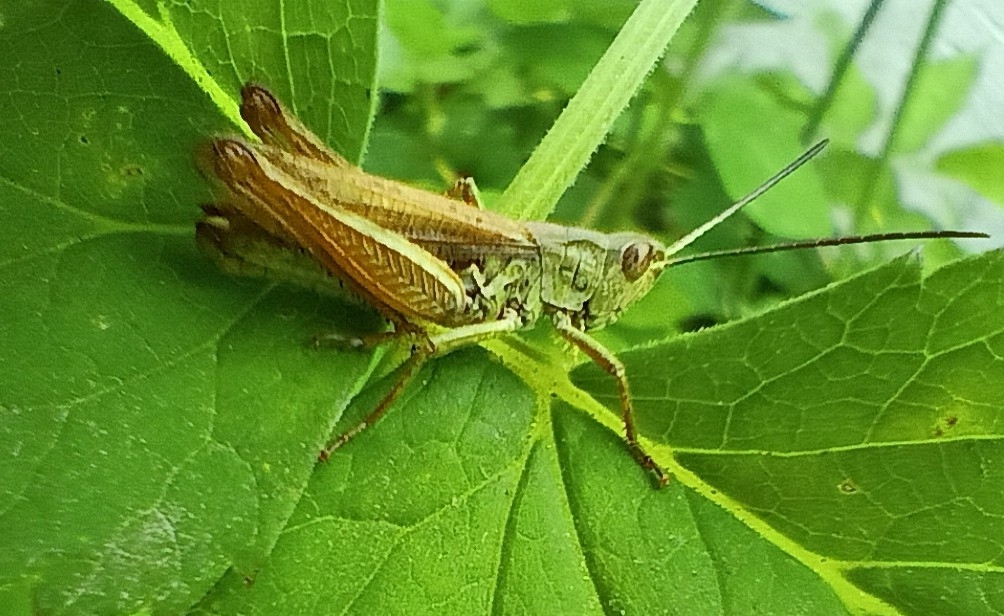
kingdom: Animalia
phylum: Arthropoda
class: Insecta
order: Orthoptera
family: Acrididae
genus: Chorthippus
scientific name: Chorthippus apricarius
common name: Upland field grasshopper
